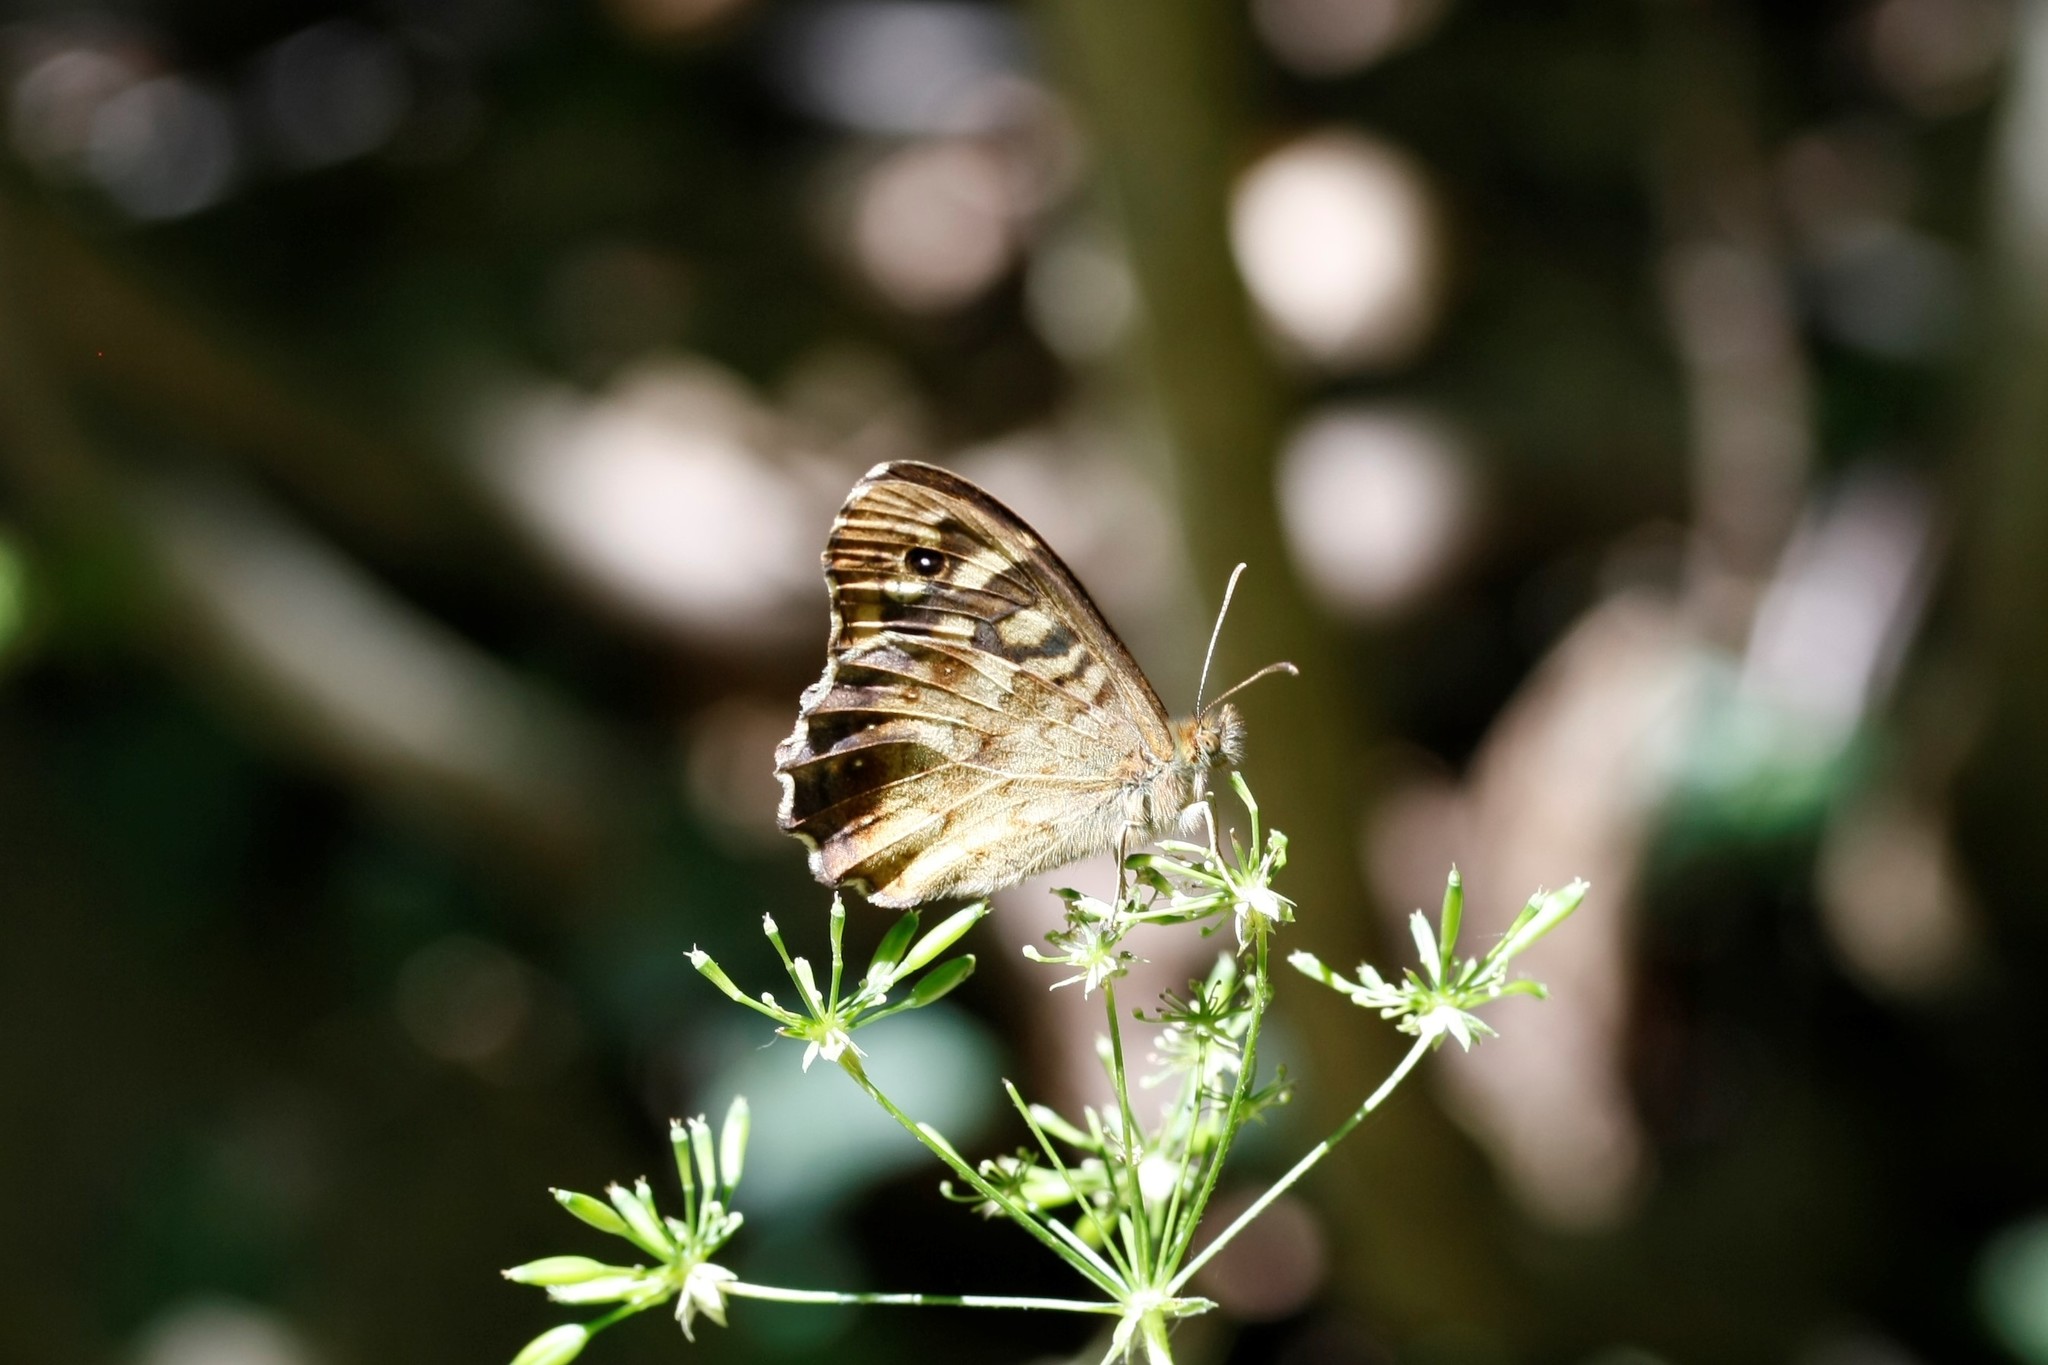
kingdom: Animalia
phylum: Arthropoda
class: Insecta
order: Lepidoptera
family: Nymphalidae
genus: Pararge
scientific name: Pararge aegeria
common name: Speckled wood
